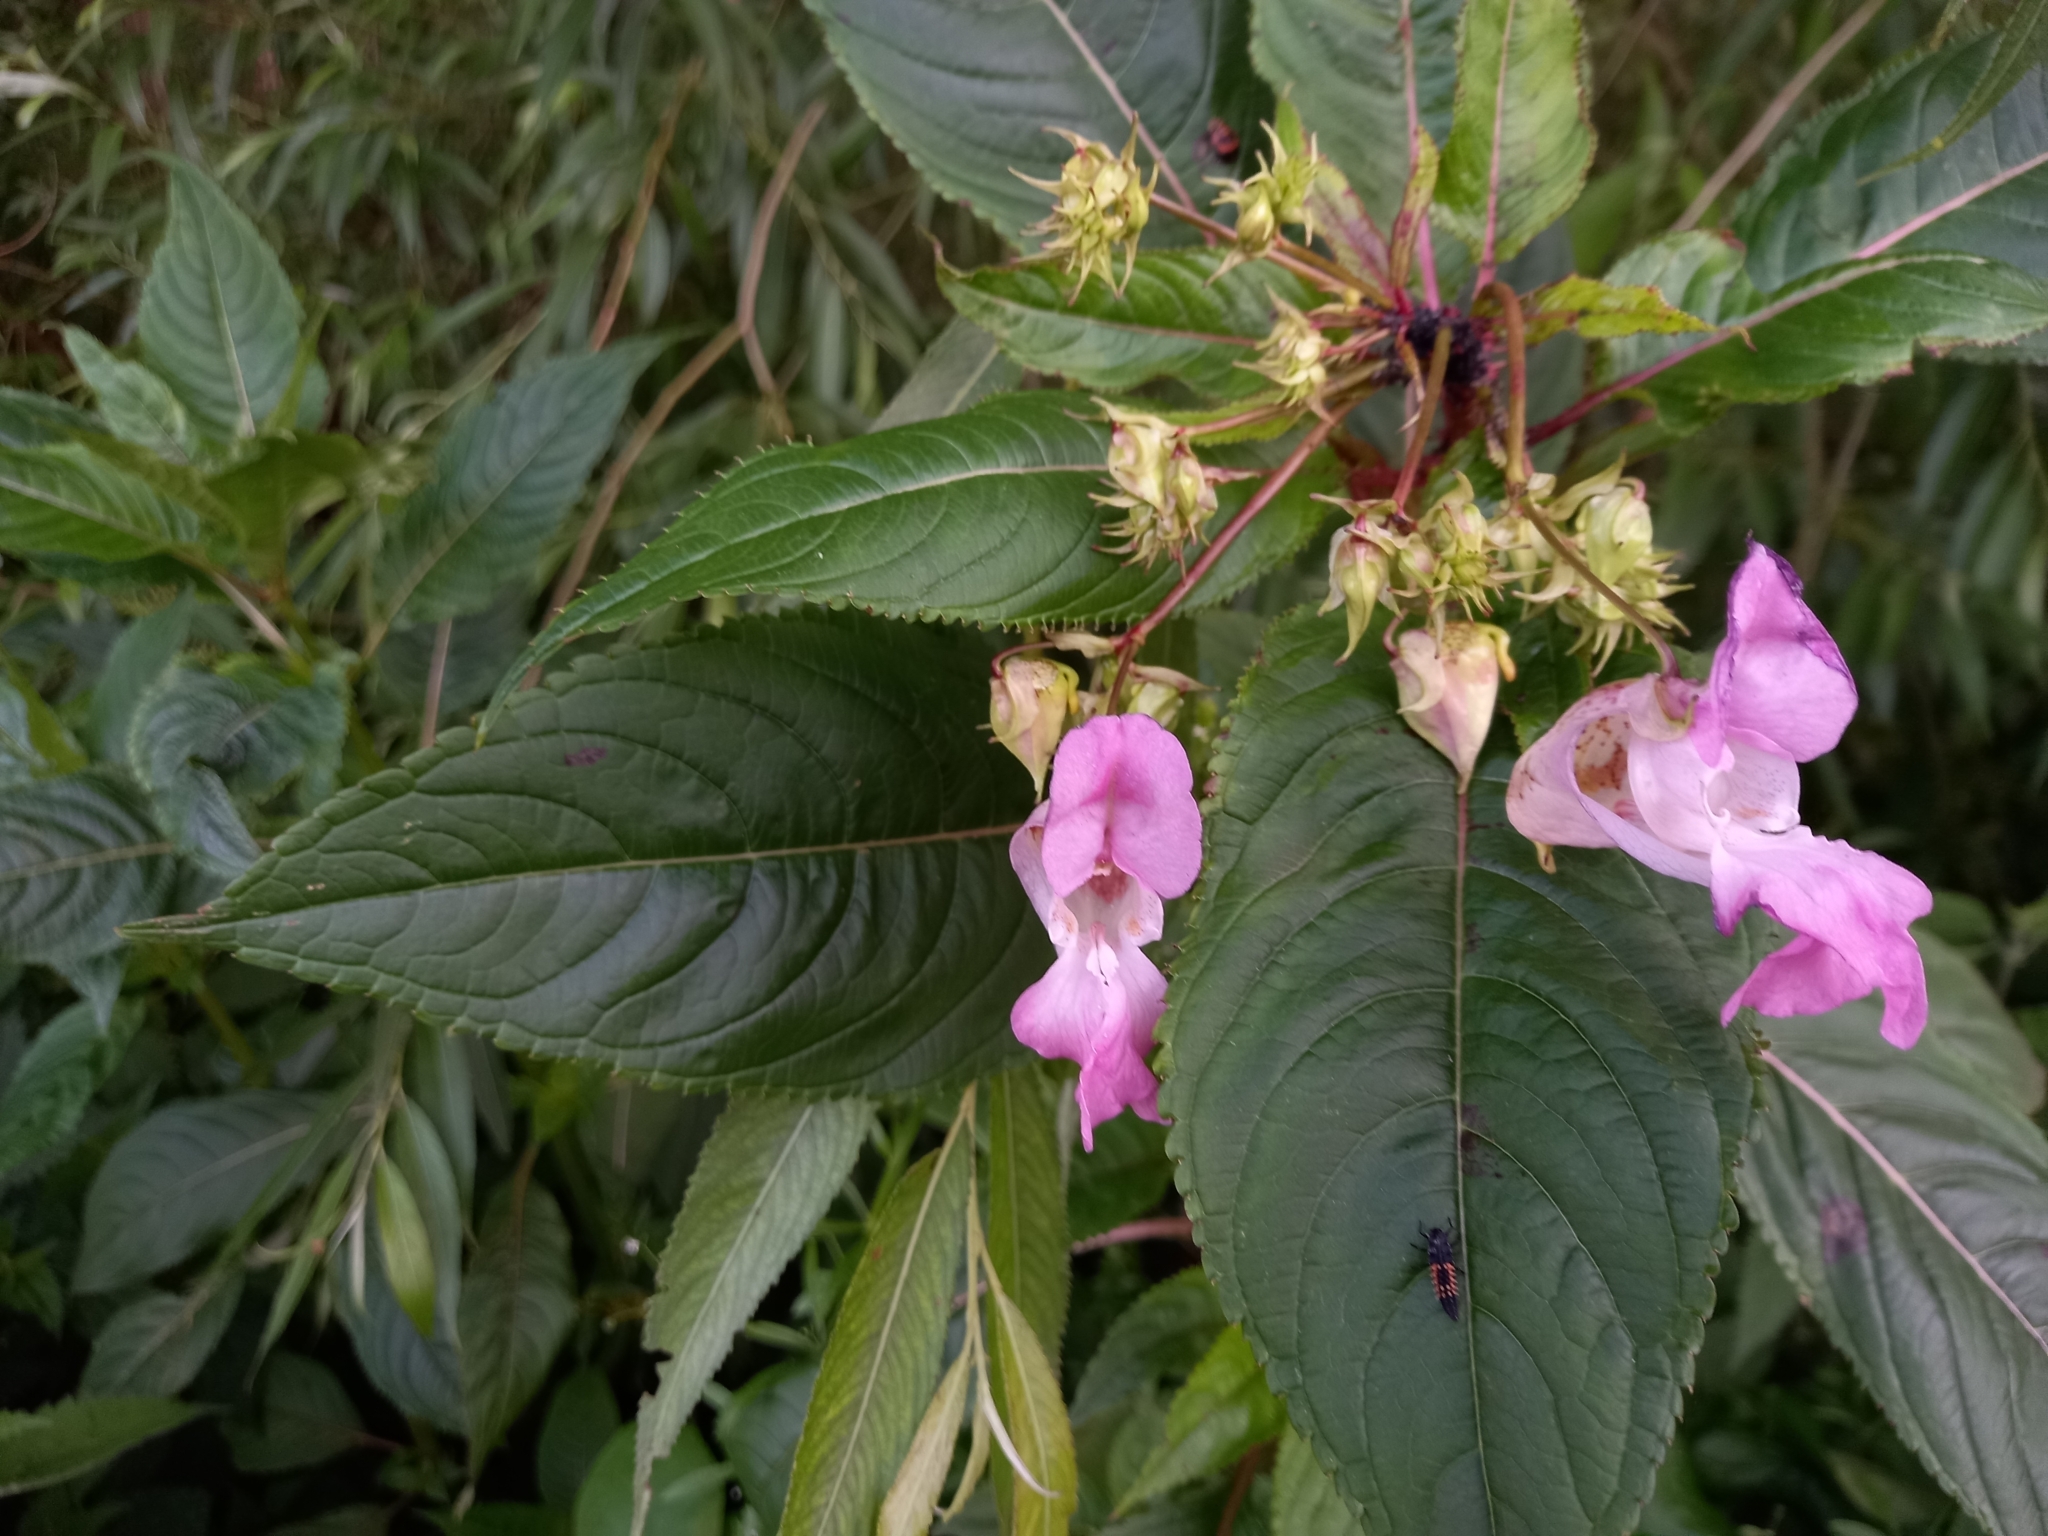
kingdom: Plantae
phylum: Tracheophyta
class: Magnoliopsida
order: Ericales
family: Balsaminaceae
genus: Impatiens
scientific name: Impatiens glandulifera
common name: Himalayan balsam
